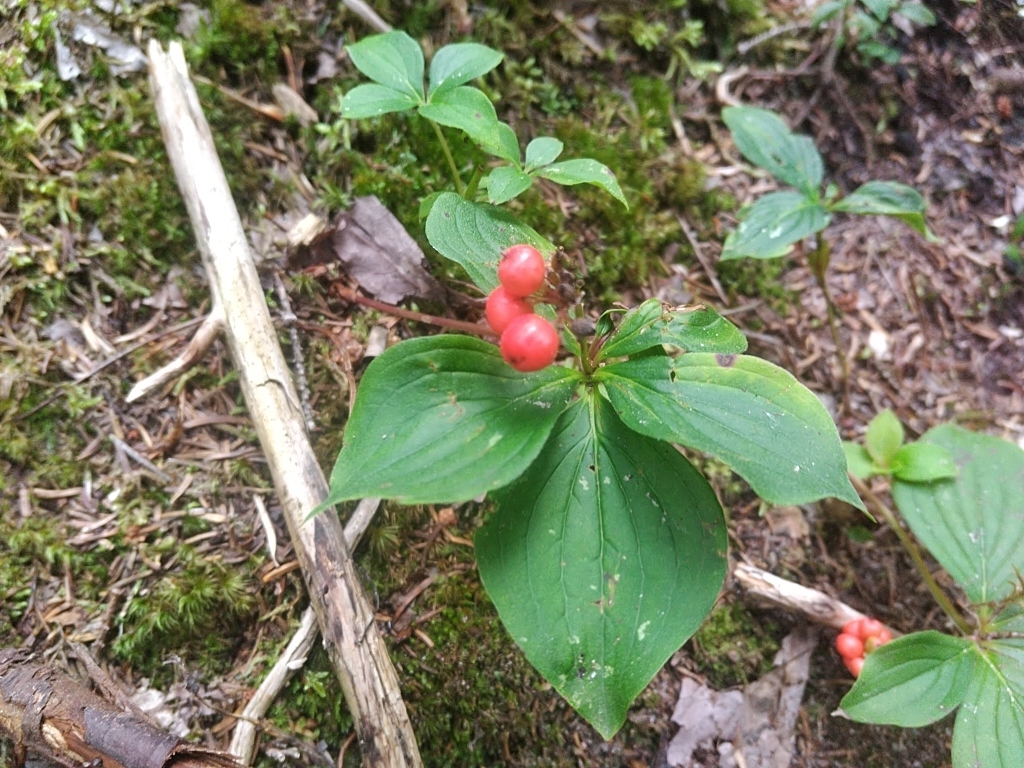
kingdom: Plantae
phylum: Tracheophyta
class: Magnoliopsida
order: Cornales
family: Cornaceae
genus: Cornus
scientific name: Cornus canadensis
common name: Creeping dogwood
